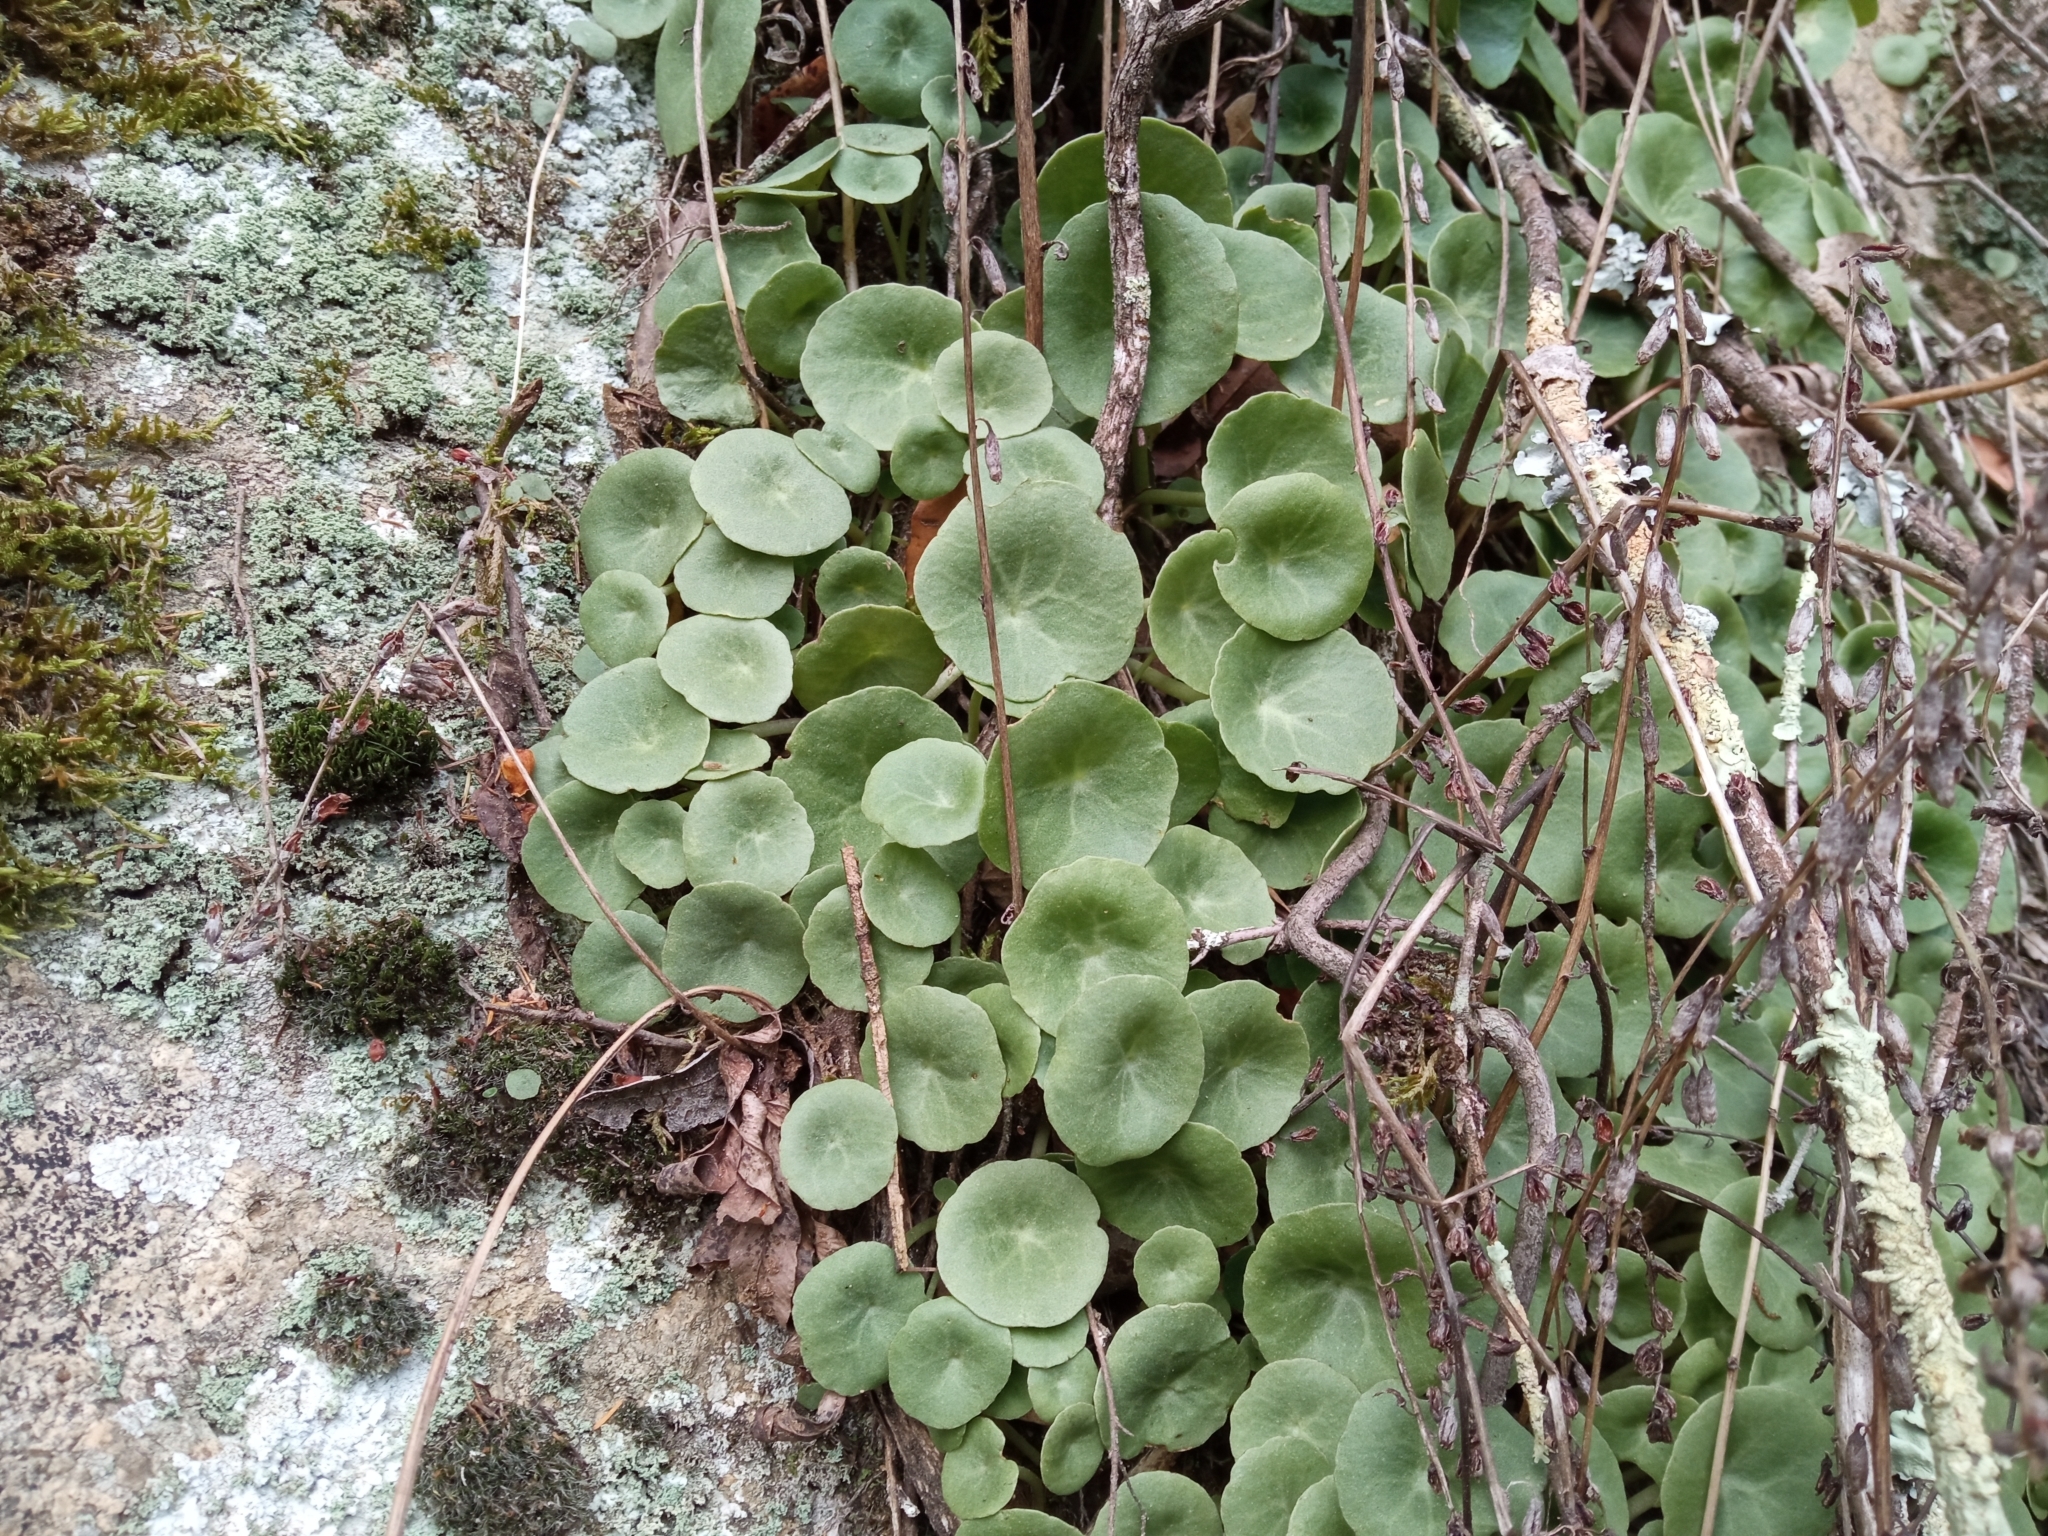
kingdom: Plantae
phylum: Tracheophyta
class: Magnoliopsida
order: Saxifragales
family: Crassulaceae
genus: Umbilicus
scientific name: Umbilicus rupestris
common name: Navelwort
